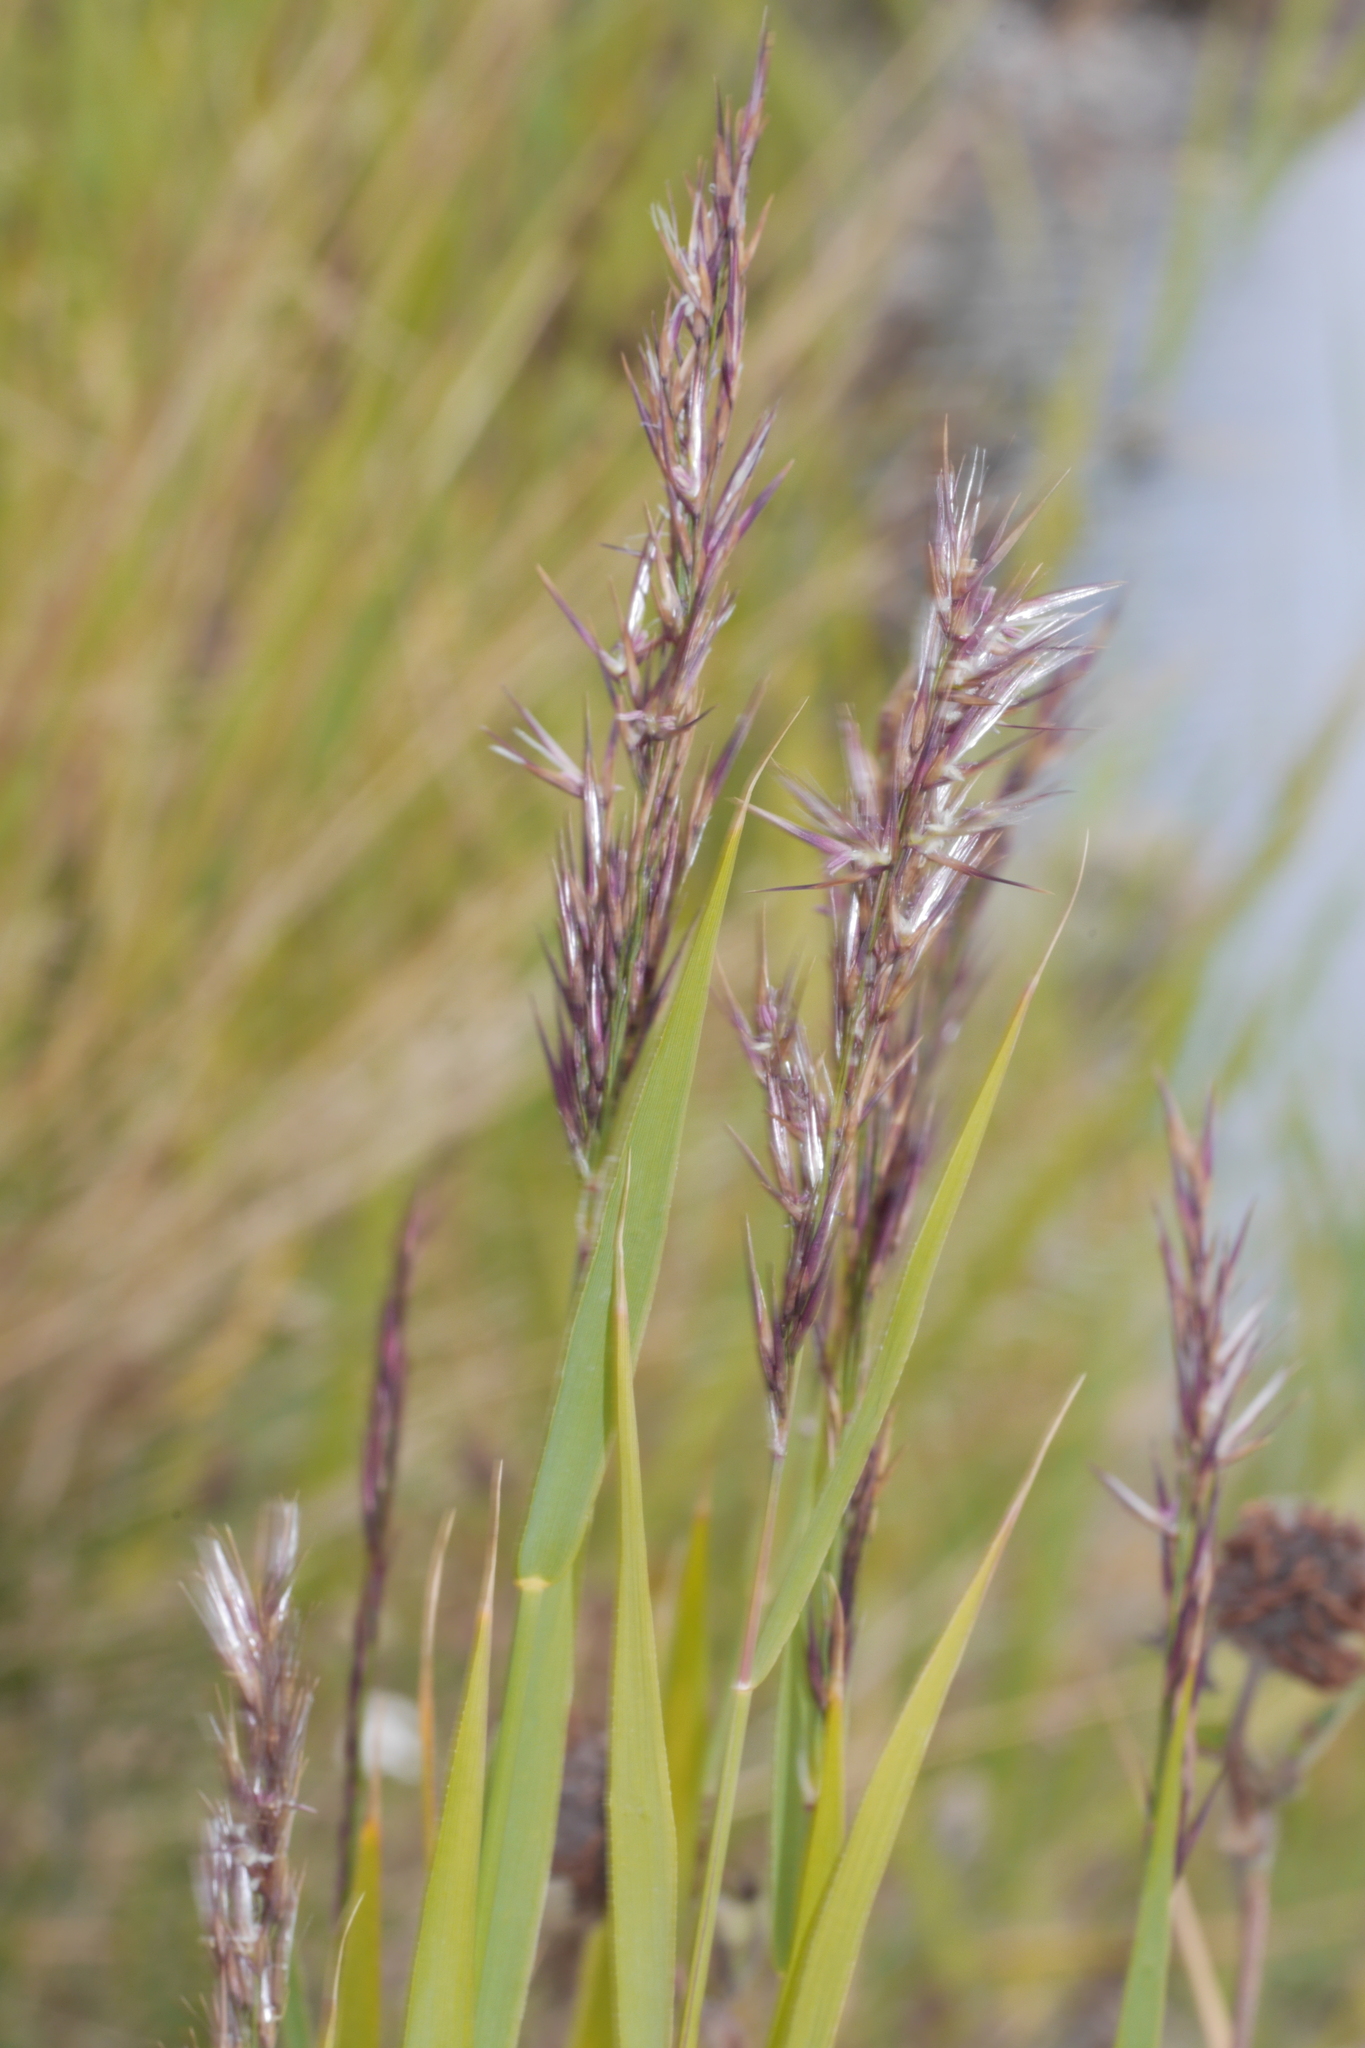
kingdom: Plantae
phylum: Tracheophyta
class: Liliopsida
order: Poales
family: Poaceae
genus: Phragmites
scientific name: Phragmites australis
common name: Common reed
